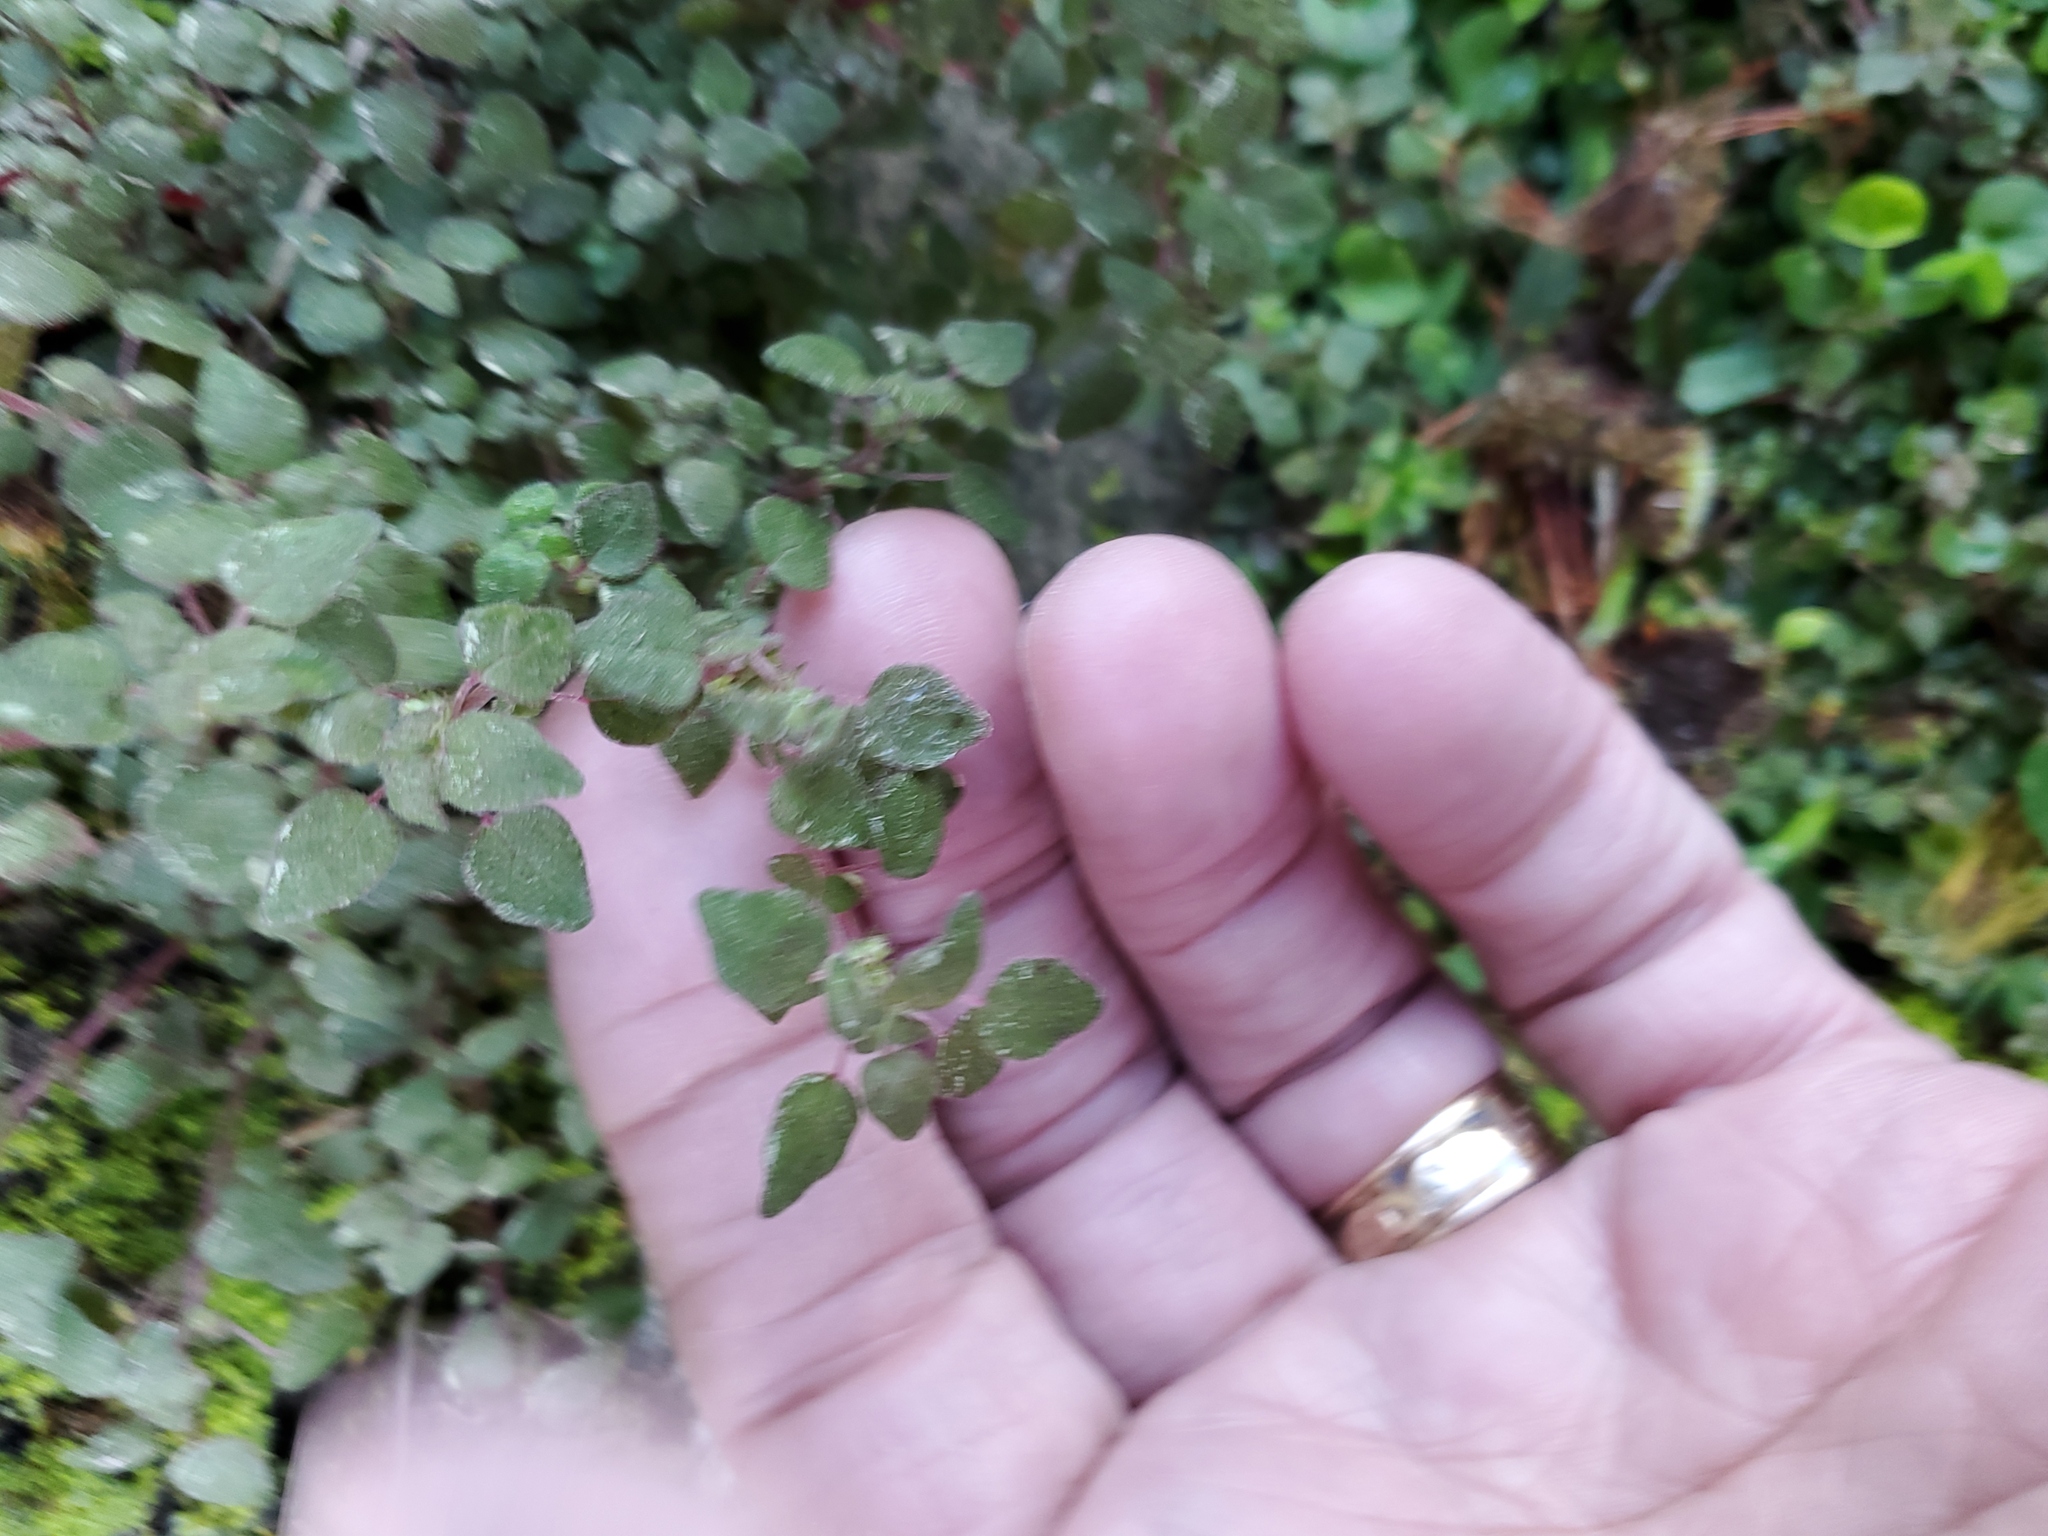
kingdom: Plantae
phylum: Tracheophyta
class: Magnoliopsida
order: Rosales
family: Urticaceae
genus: Parietaria
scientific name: Parietaria floridana
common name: Florida pellitory
